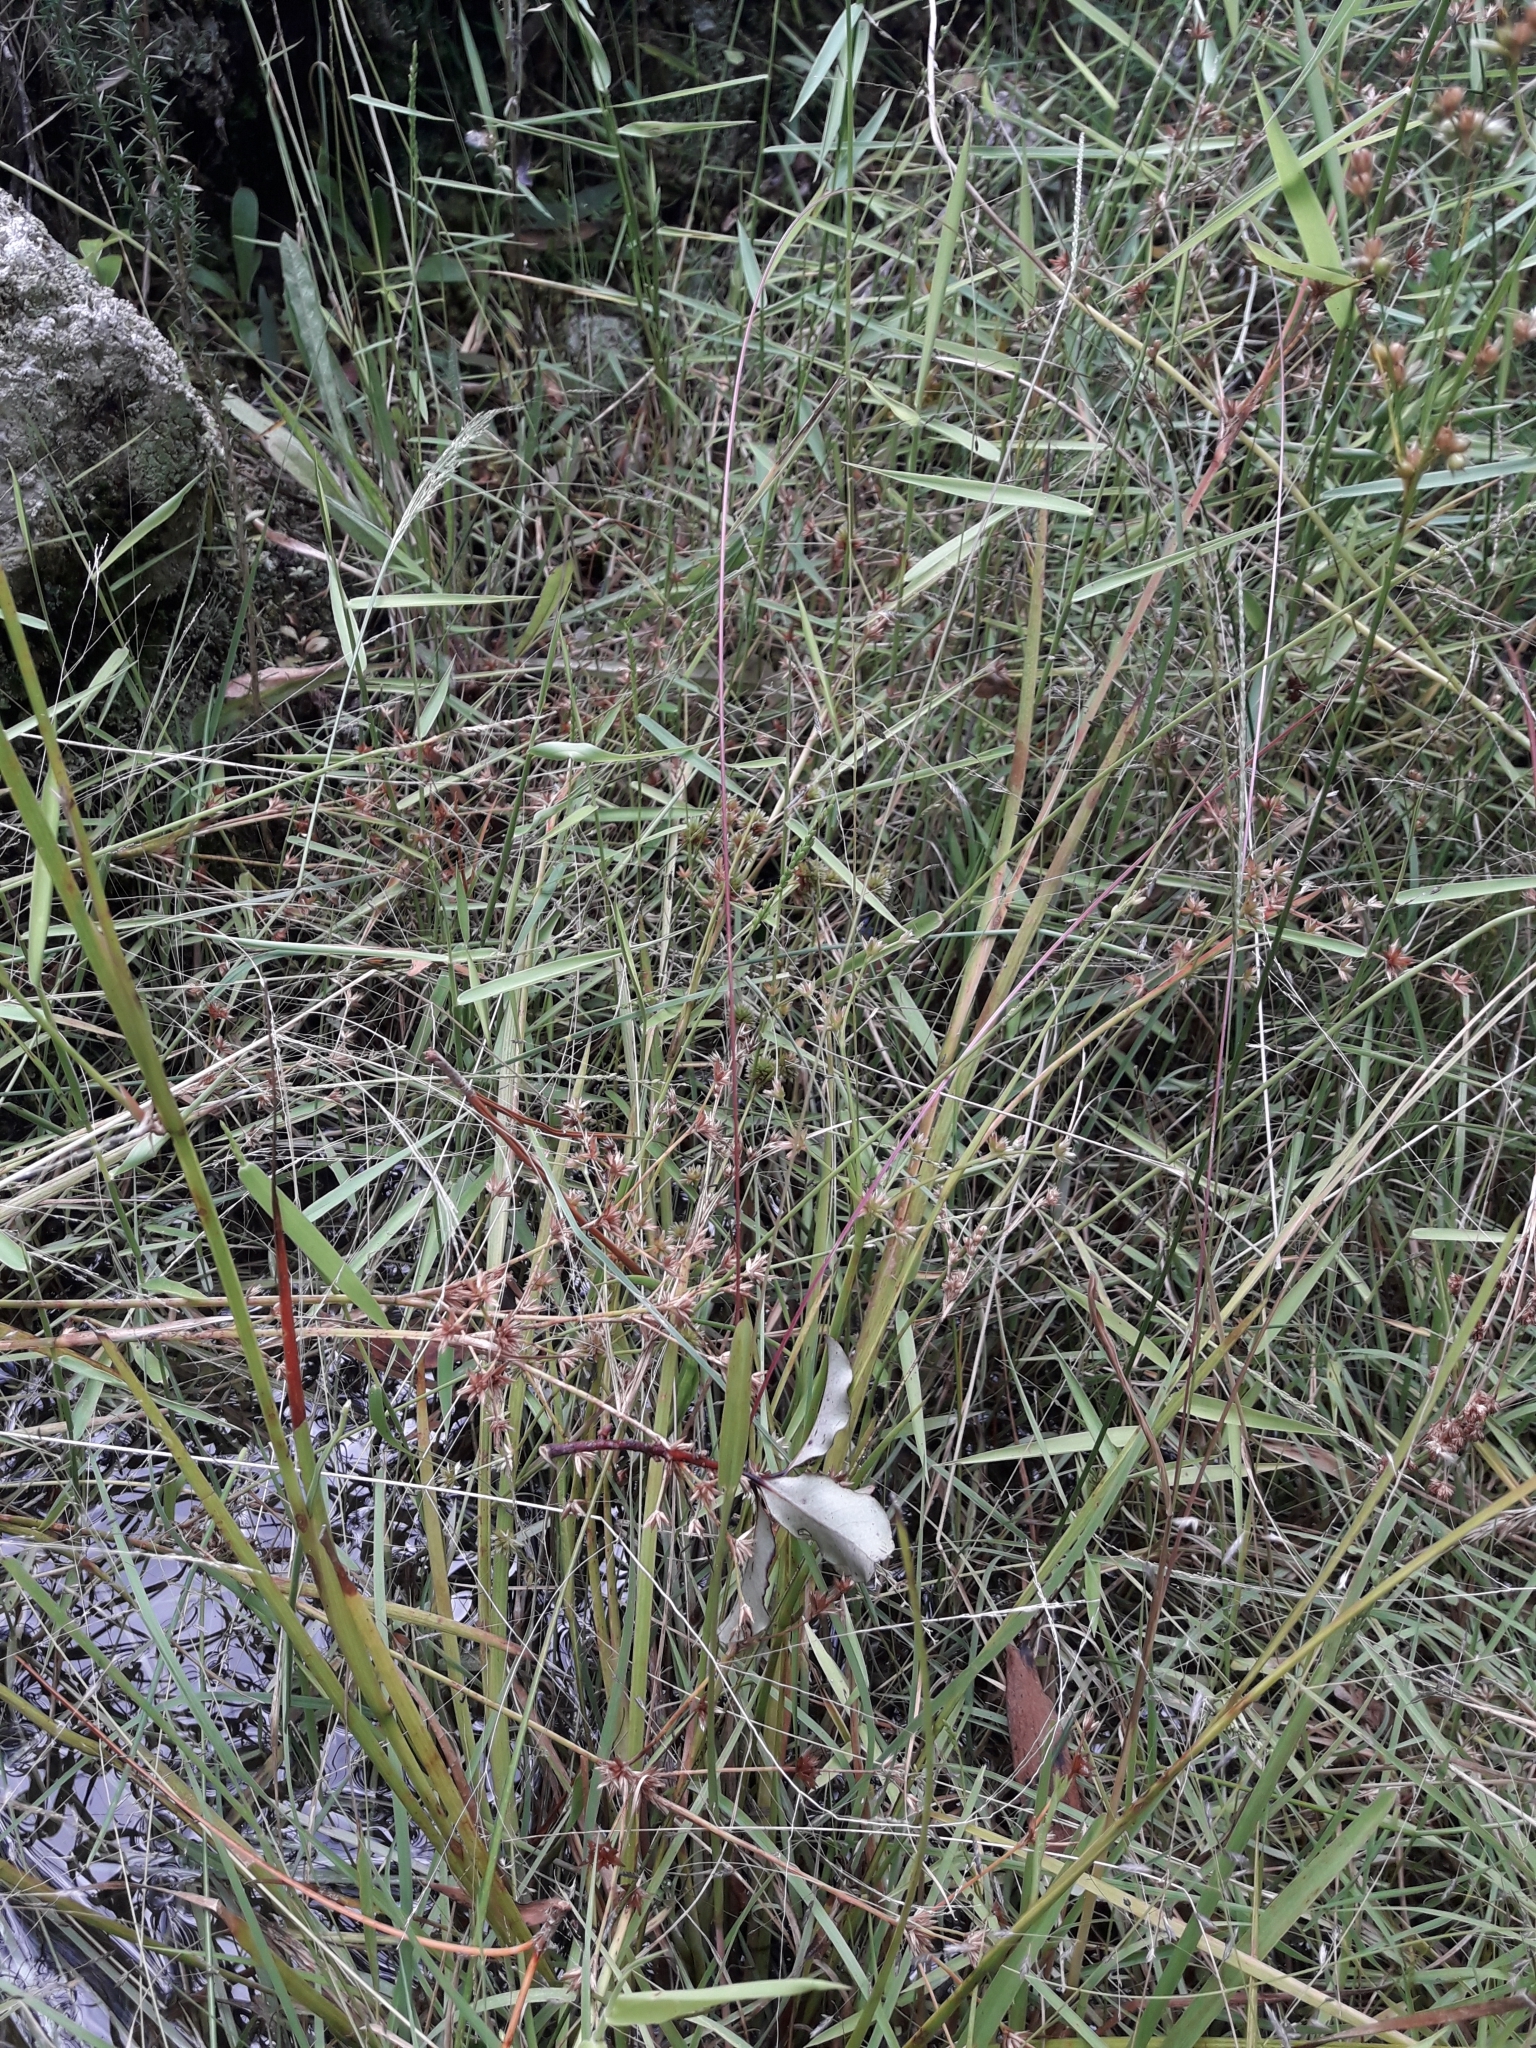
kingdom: Plantae
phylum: Tracheophyta
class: Liliopsida
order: Poales
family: Juncaceae
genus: Juncus
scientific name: Juncus prismatocarpus
